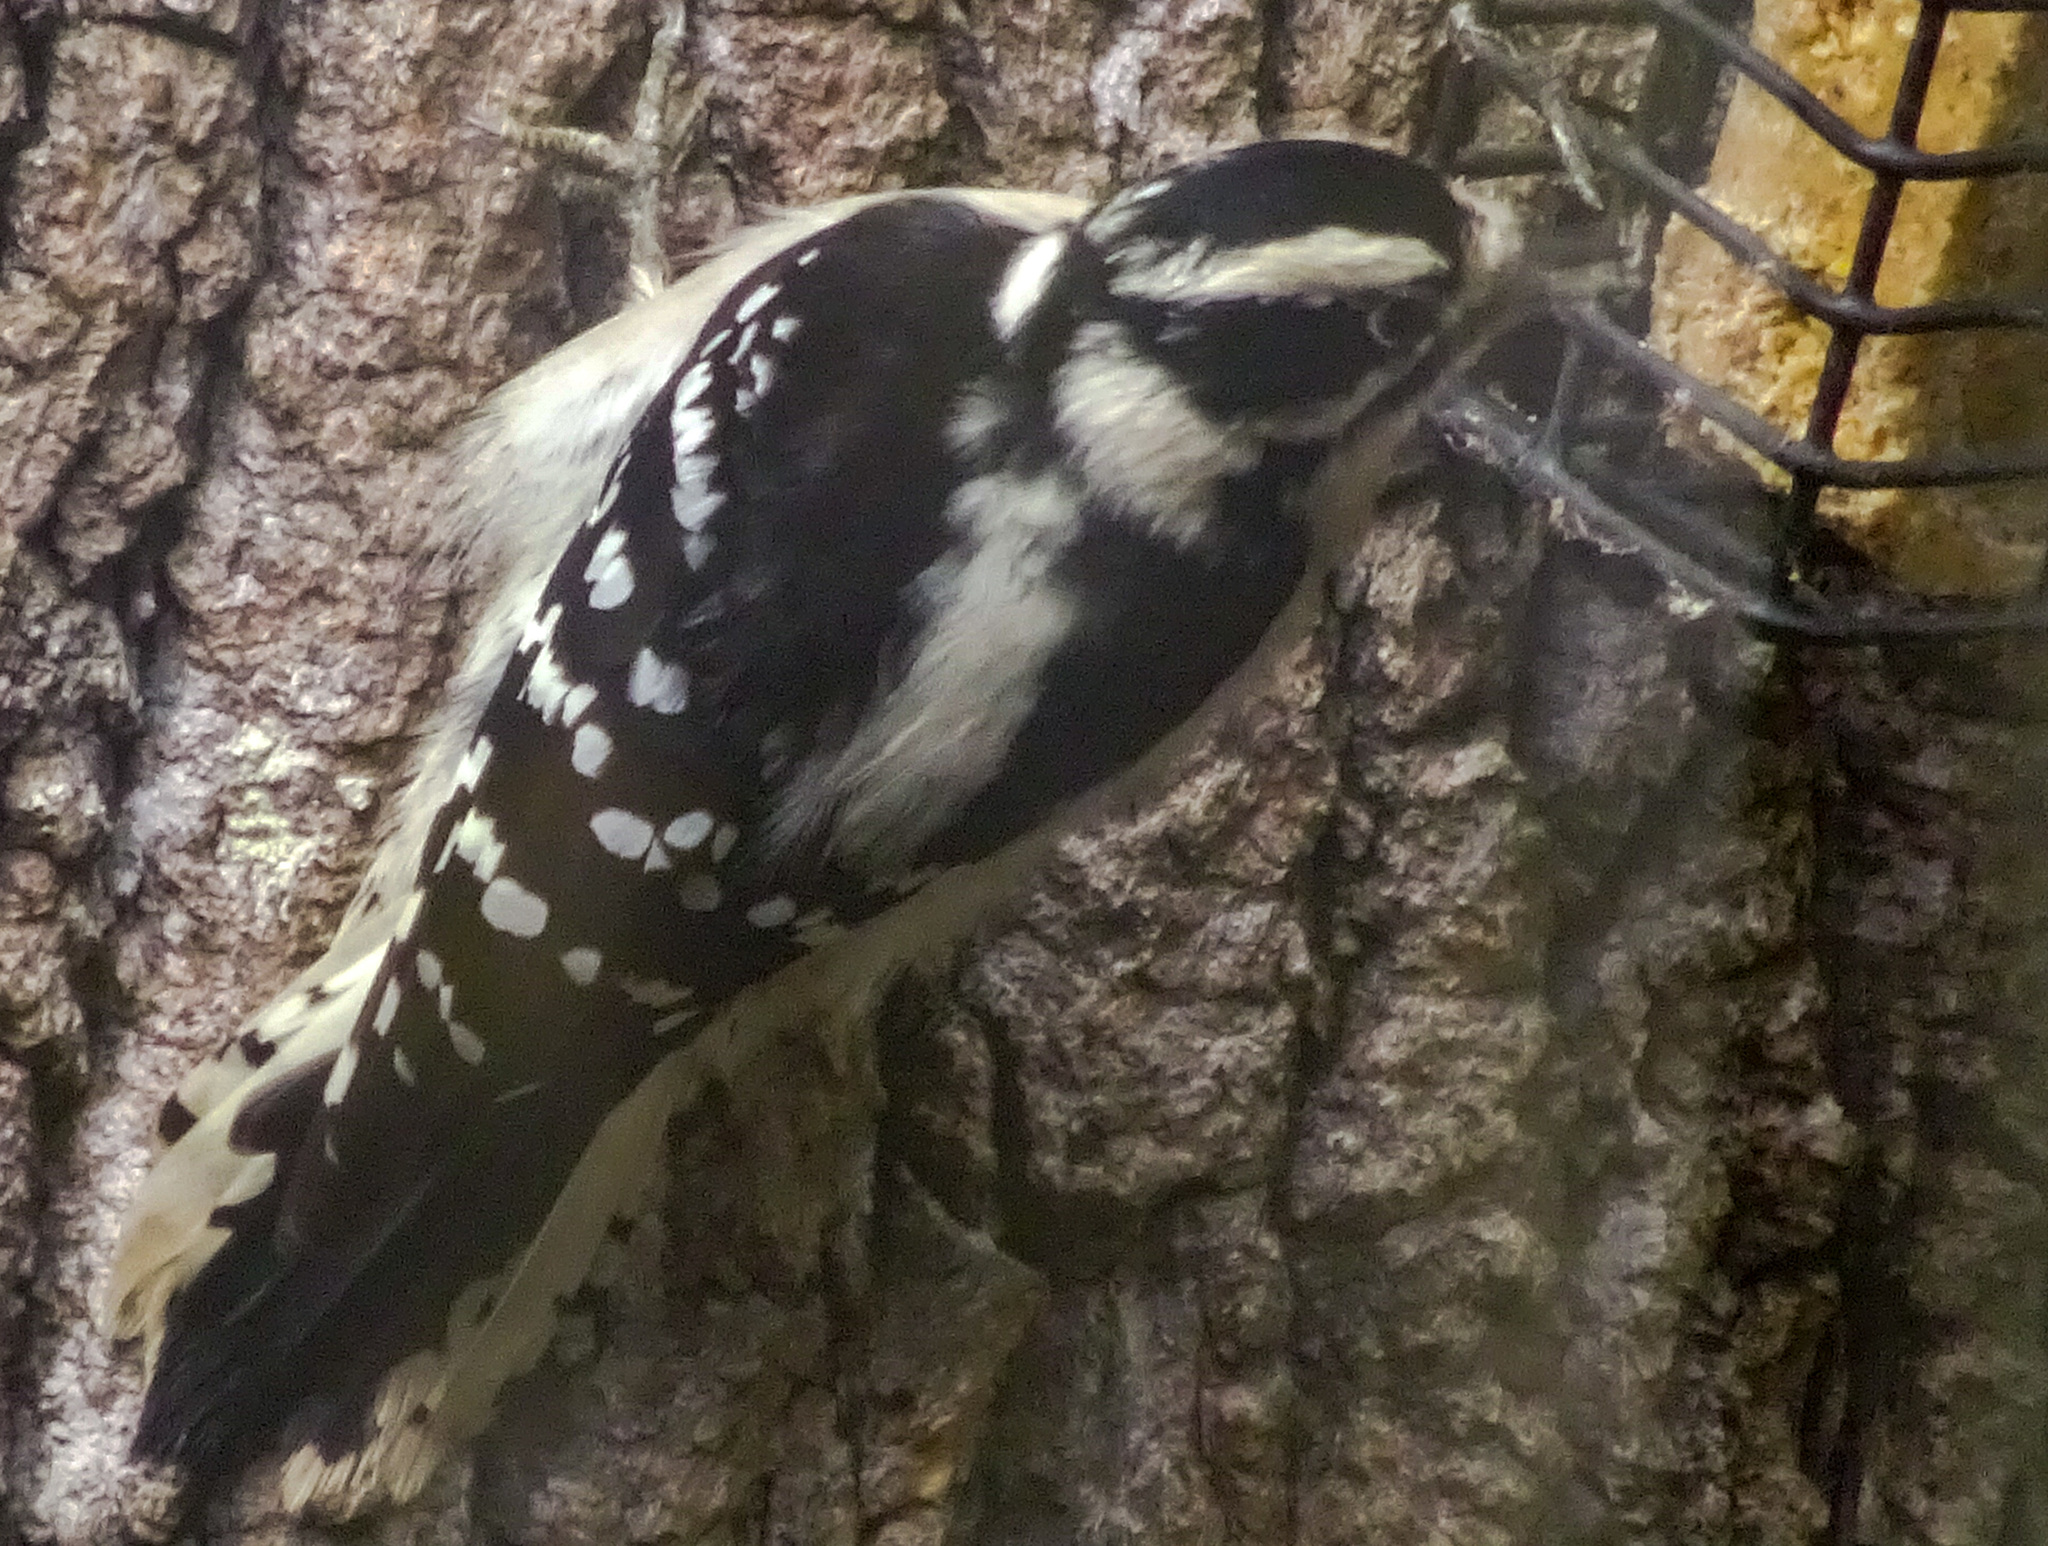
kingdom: Animalia
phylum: Chordata
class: Aves
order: Piciformes
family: Picidae
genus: Dryobates
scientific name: Dryobates pubescens
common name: Downy woodpecker
